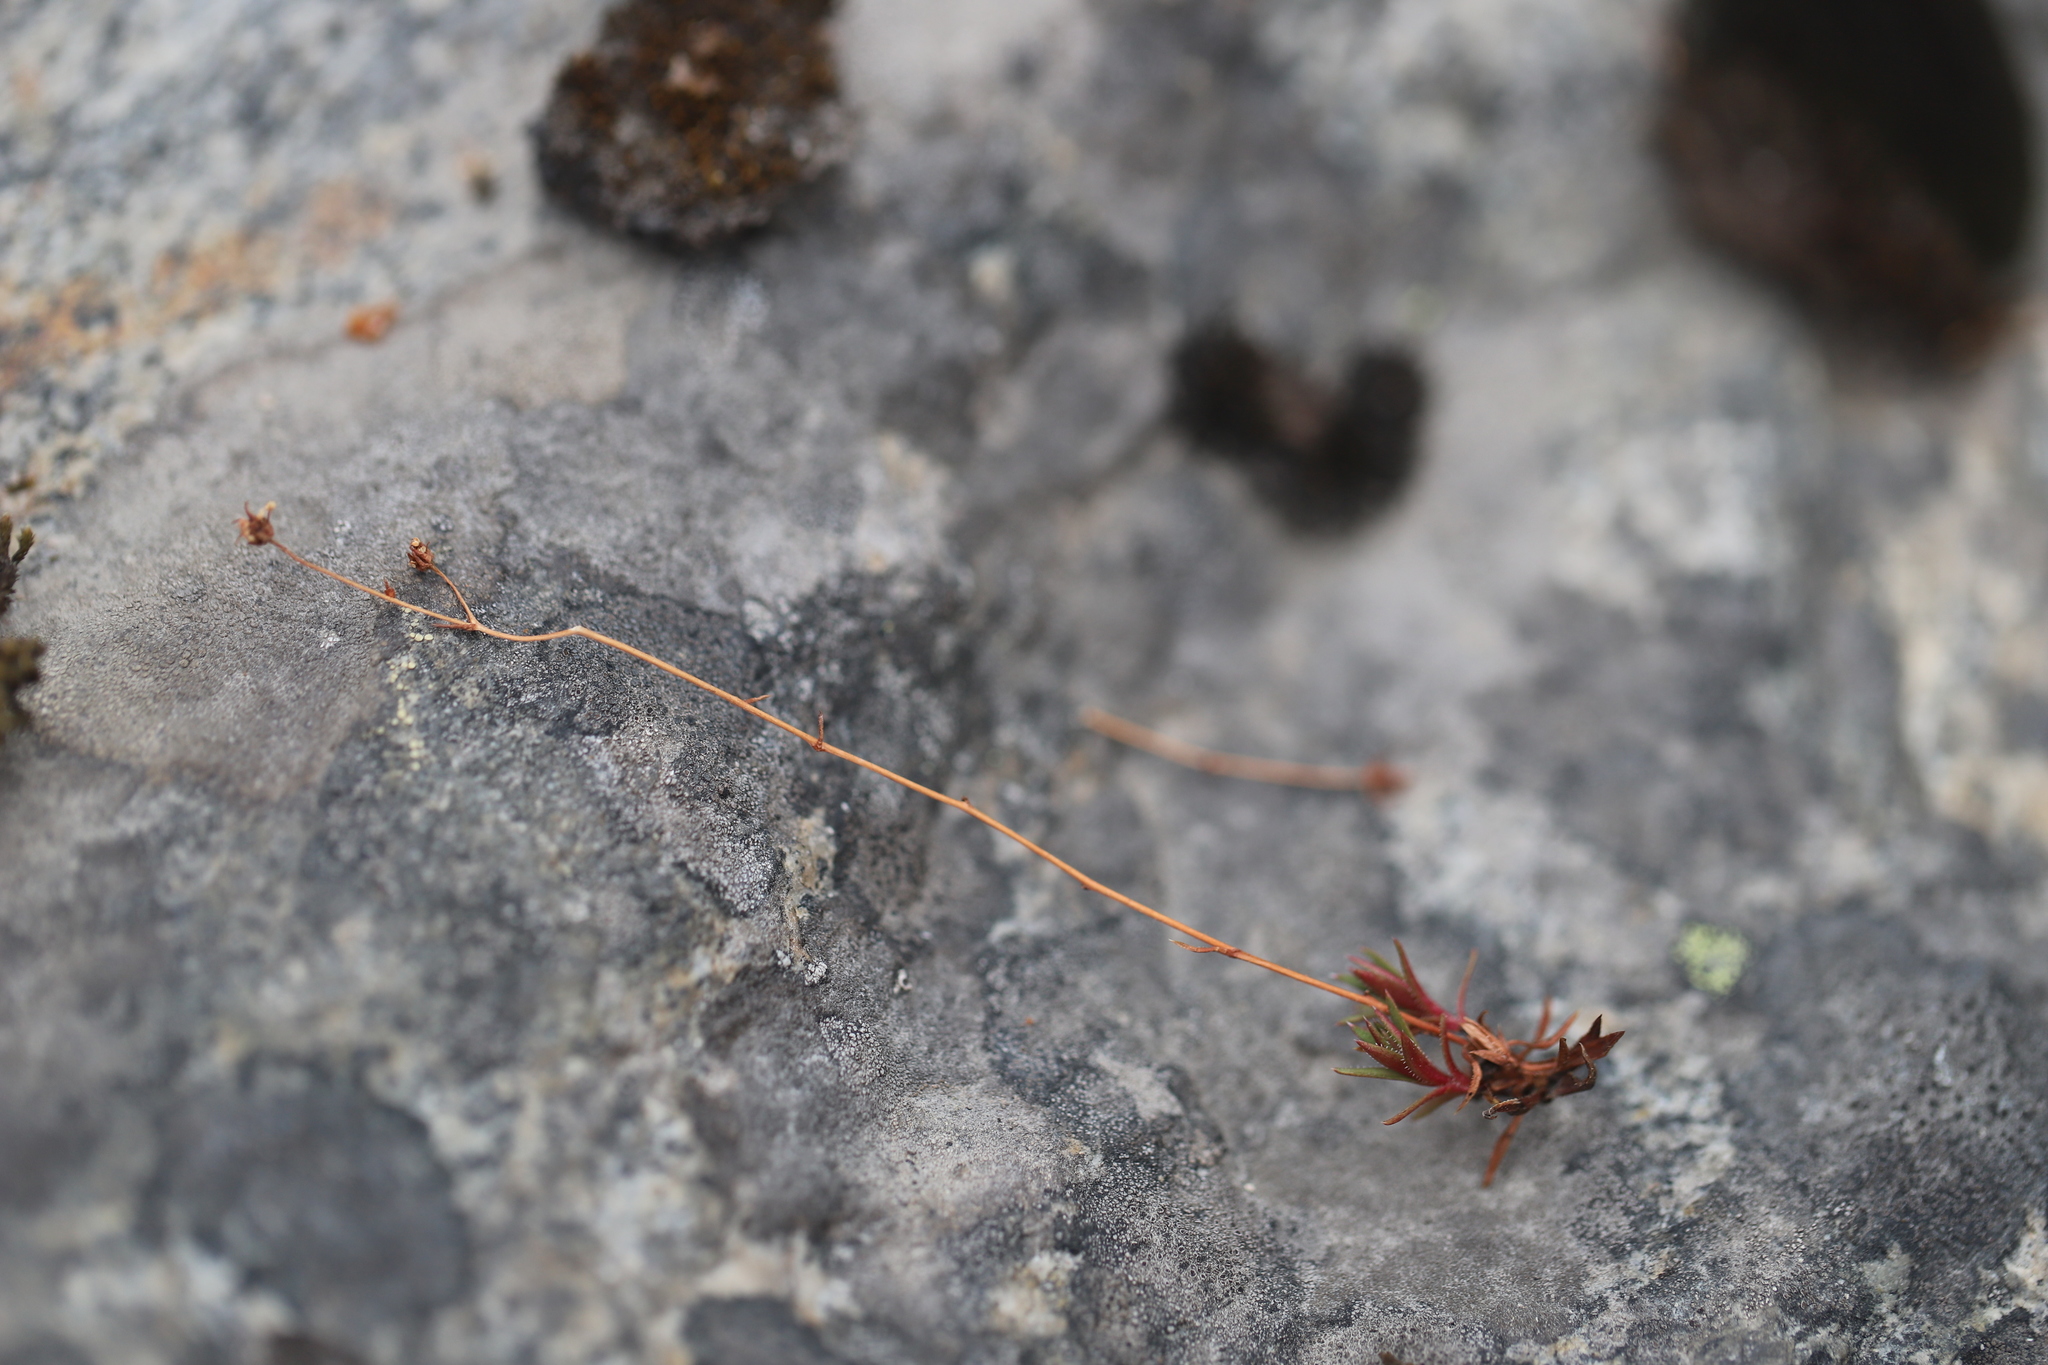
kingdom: Plantae
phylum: Tracheophyta
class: Magnoliopsida
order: Saxifragales
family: Saxifragaceae
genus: Saxifraga
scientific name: Saxifraga bronchialis
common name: Matted saxifrage
